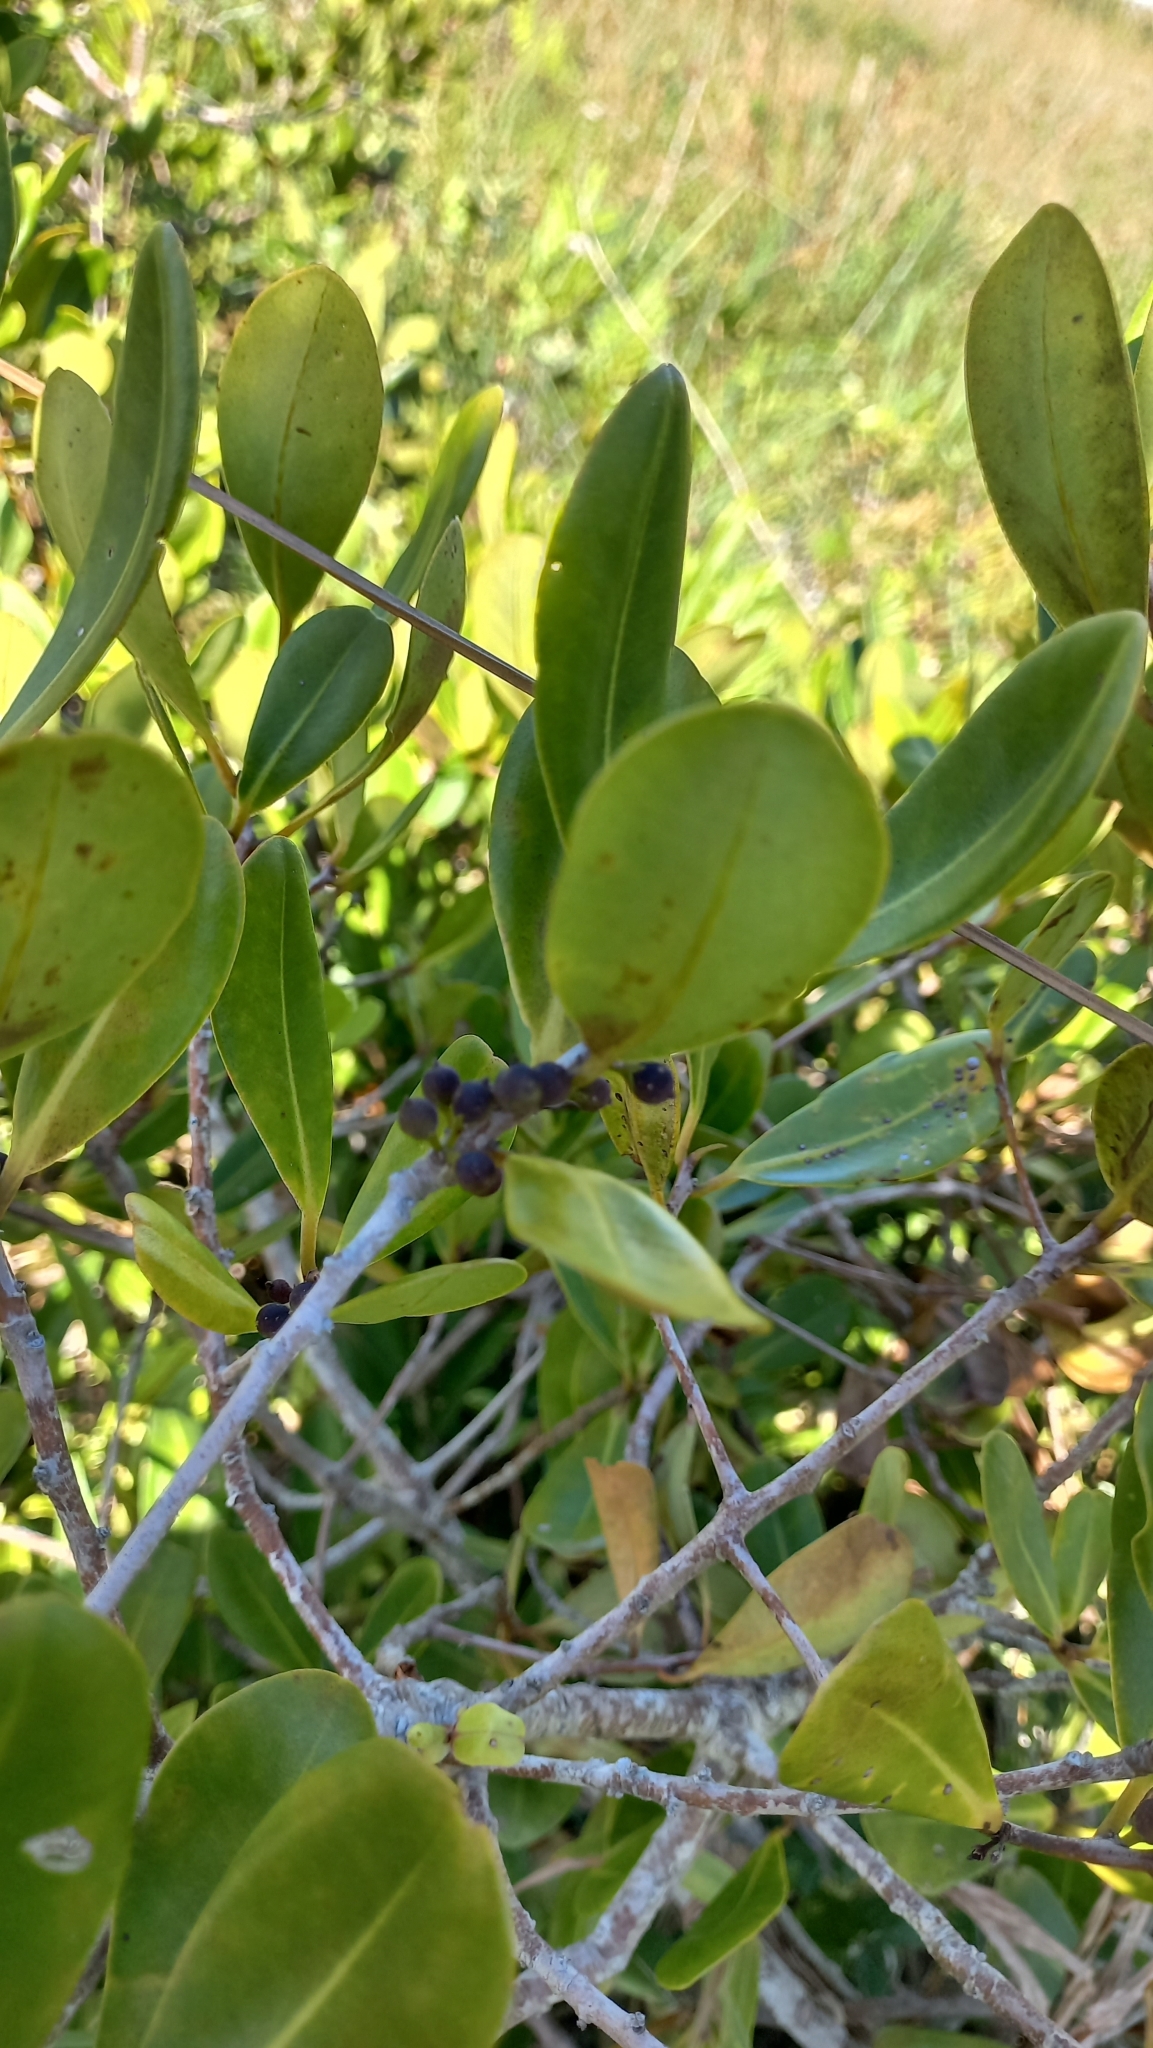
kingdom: Plantae
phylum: Tracheophyta
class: Magnoliopsida
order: Ericales
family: Primulaceae
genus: Myrsine
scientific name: Myrsine parvifolia
